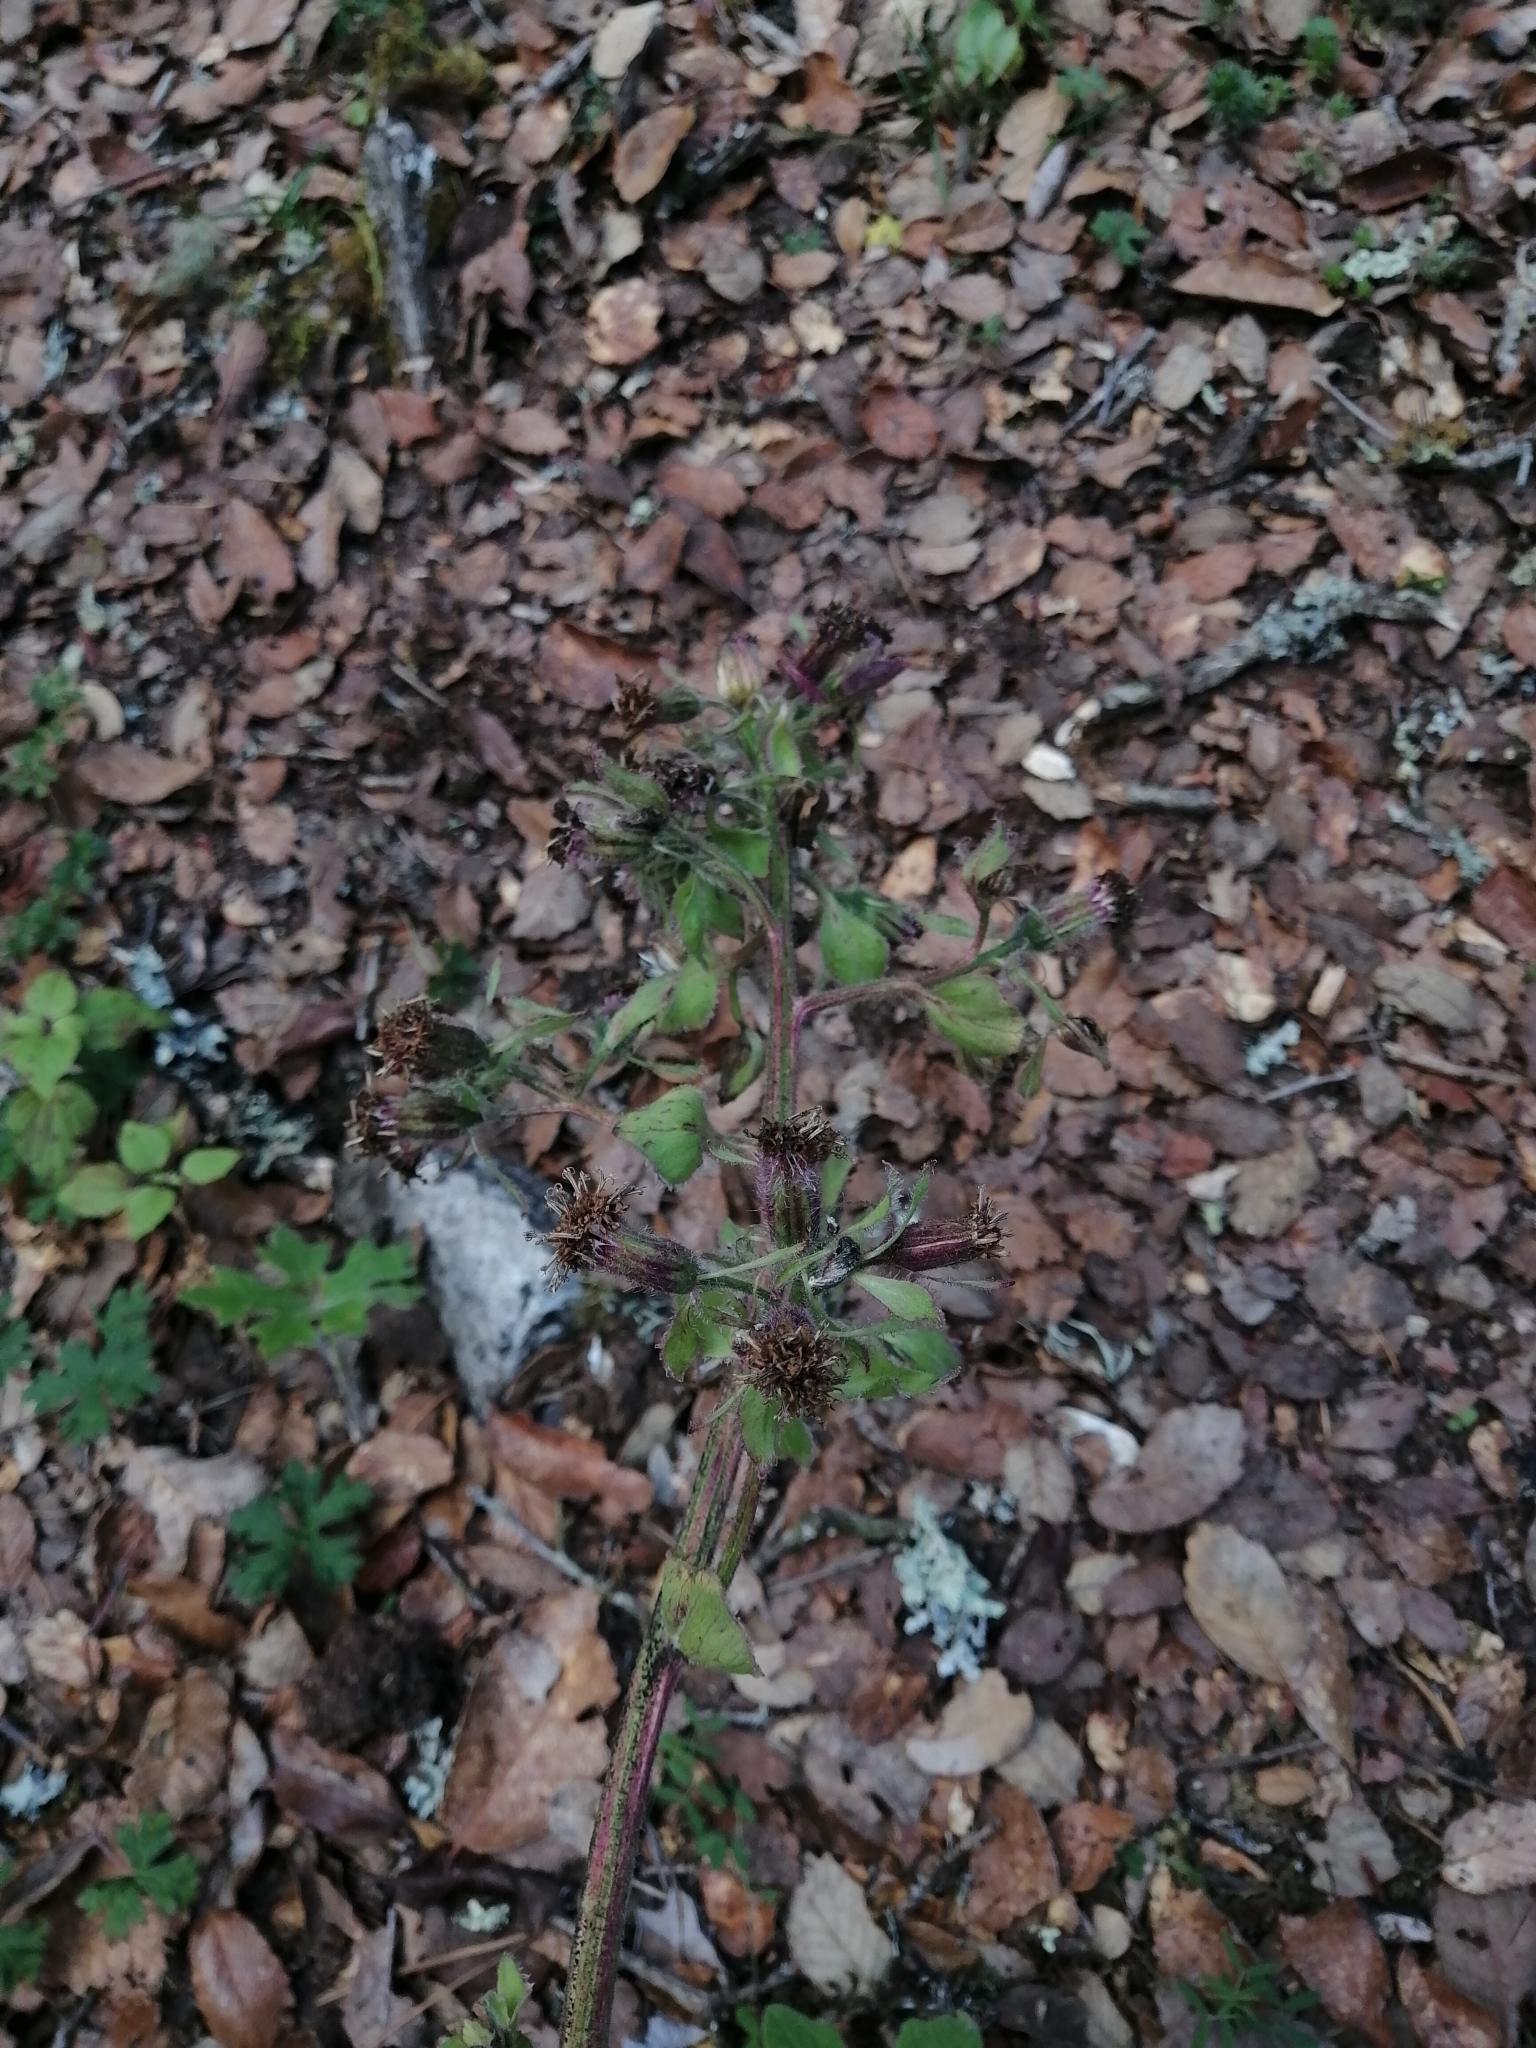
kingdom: Plantae
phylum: Tracheophyta
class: Magnoliopsida
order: Asterales
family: Asteraceae
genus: Psacalium
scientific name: Psacalium peltatum
